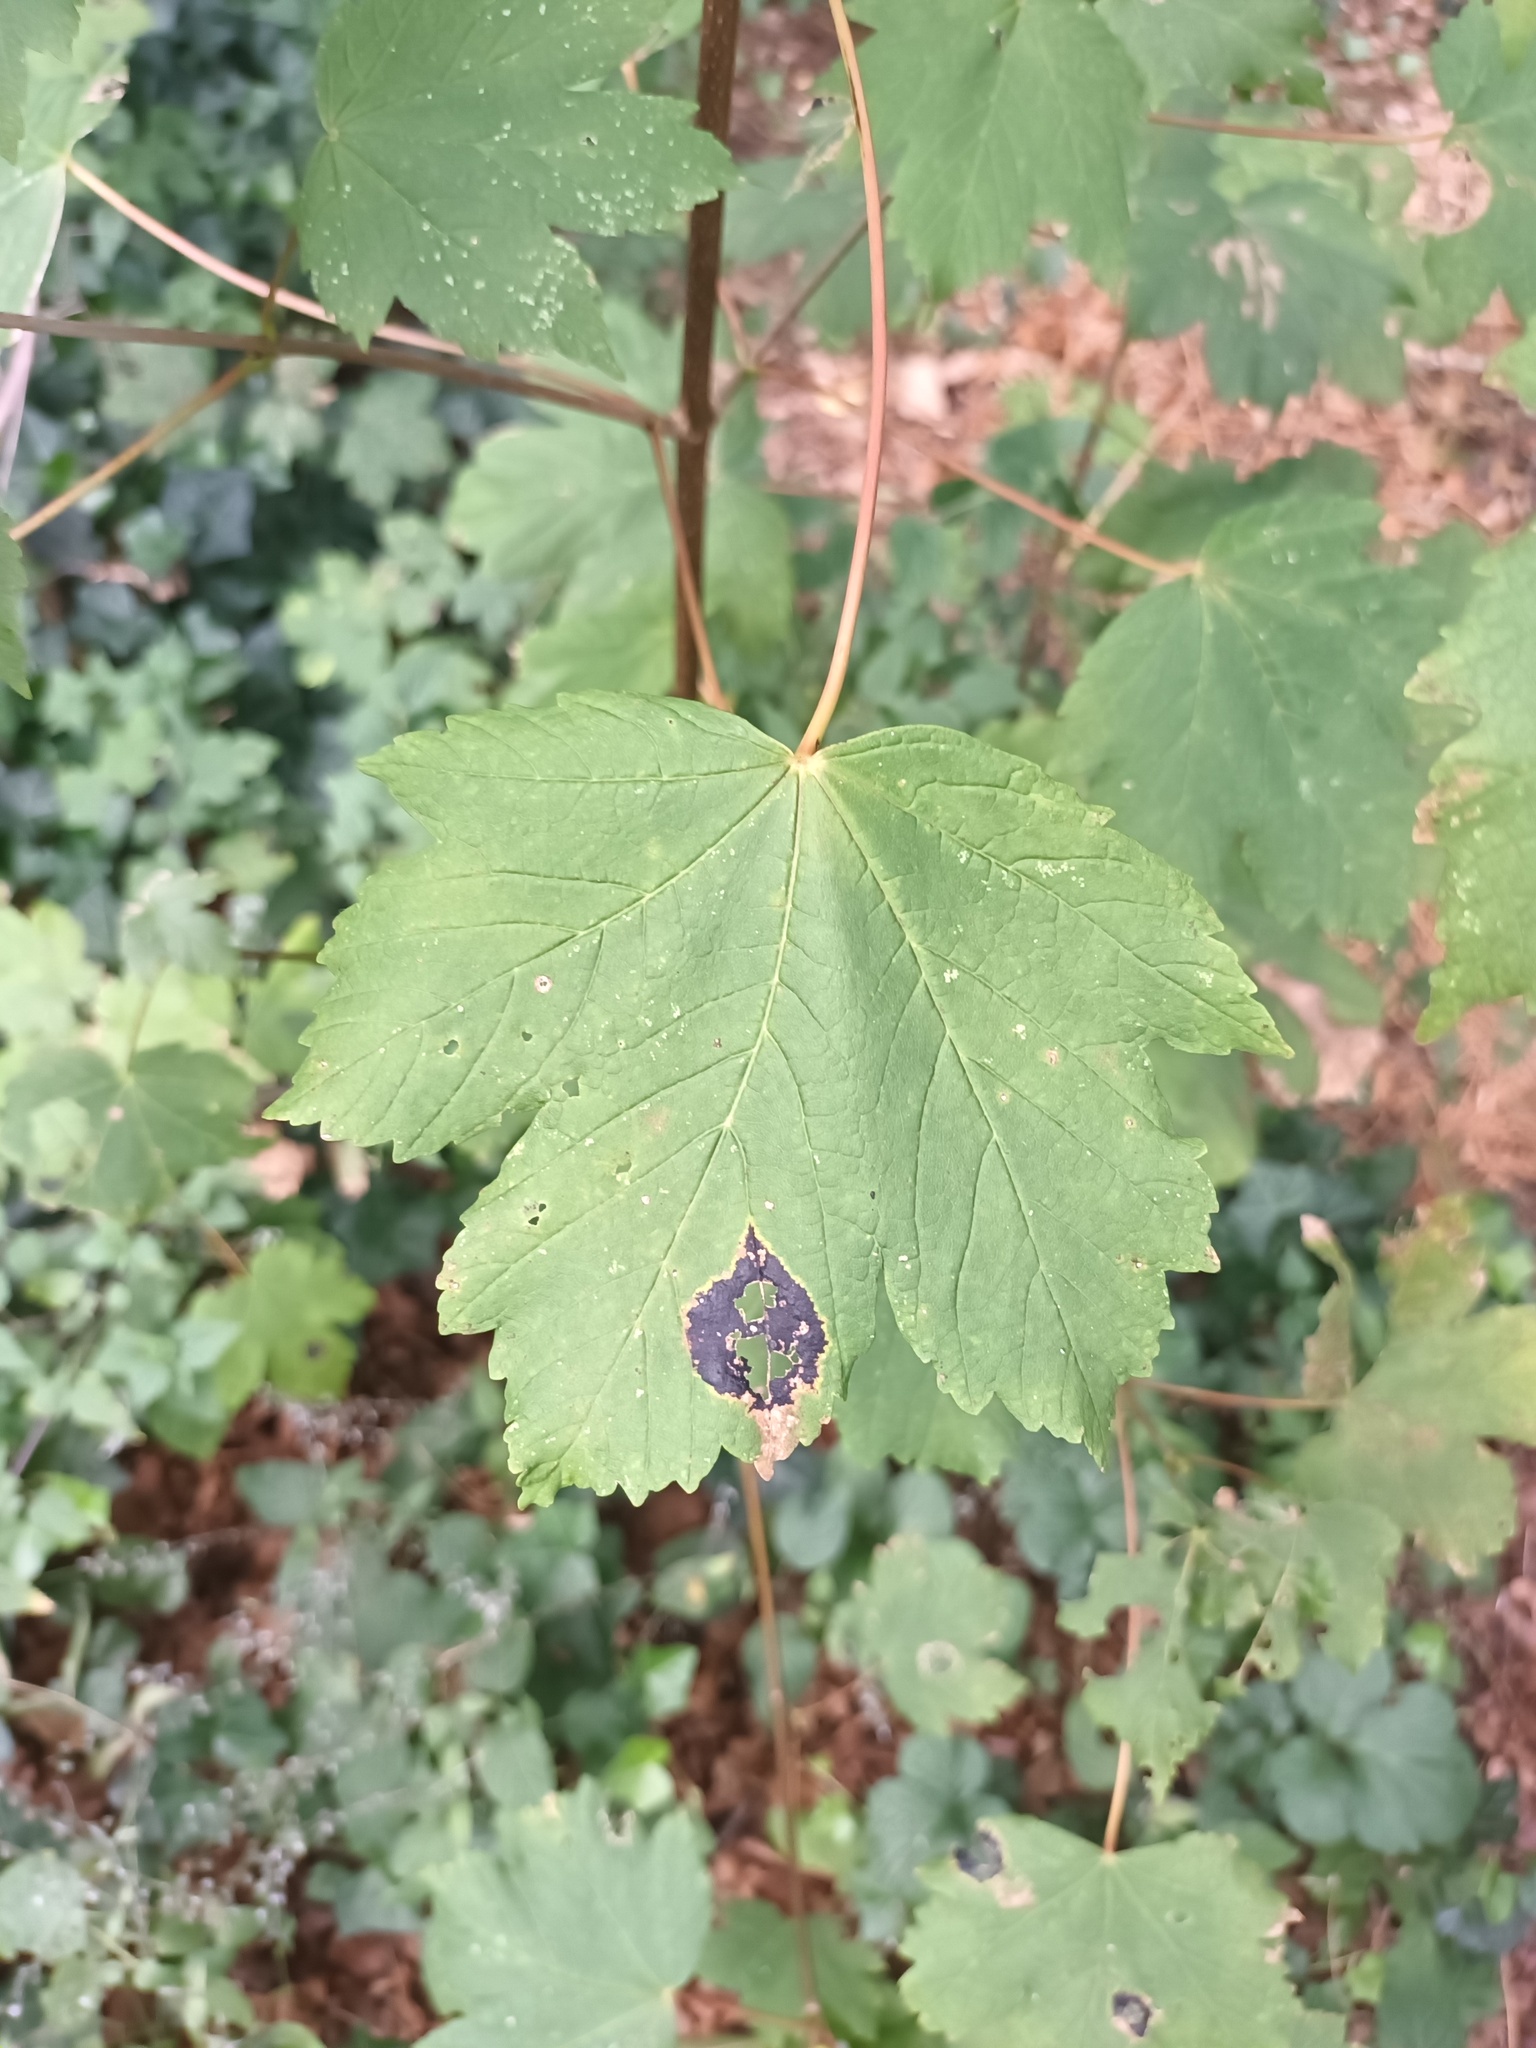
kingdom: Fungi
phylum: Ascomycota
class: Leotiomycetes
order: Rhytismatales
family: Rhytismataceae
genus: Rhytisma
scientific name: Rhytisma acerinum
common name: European tar spot
